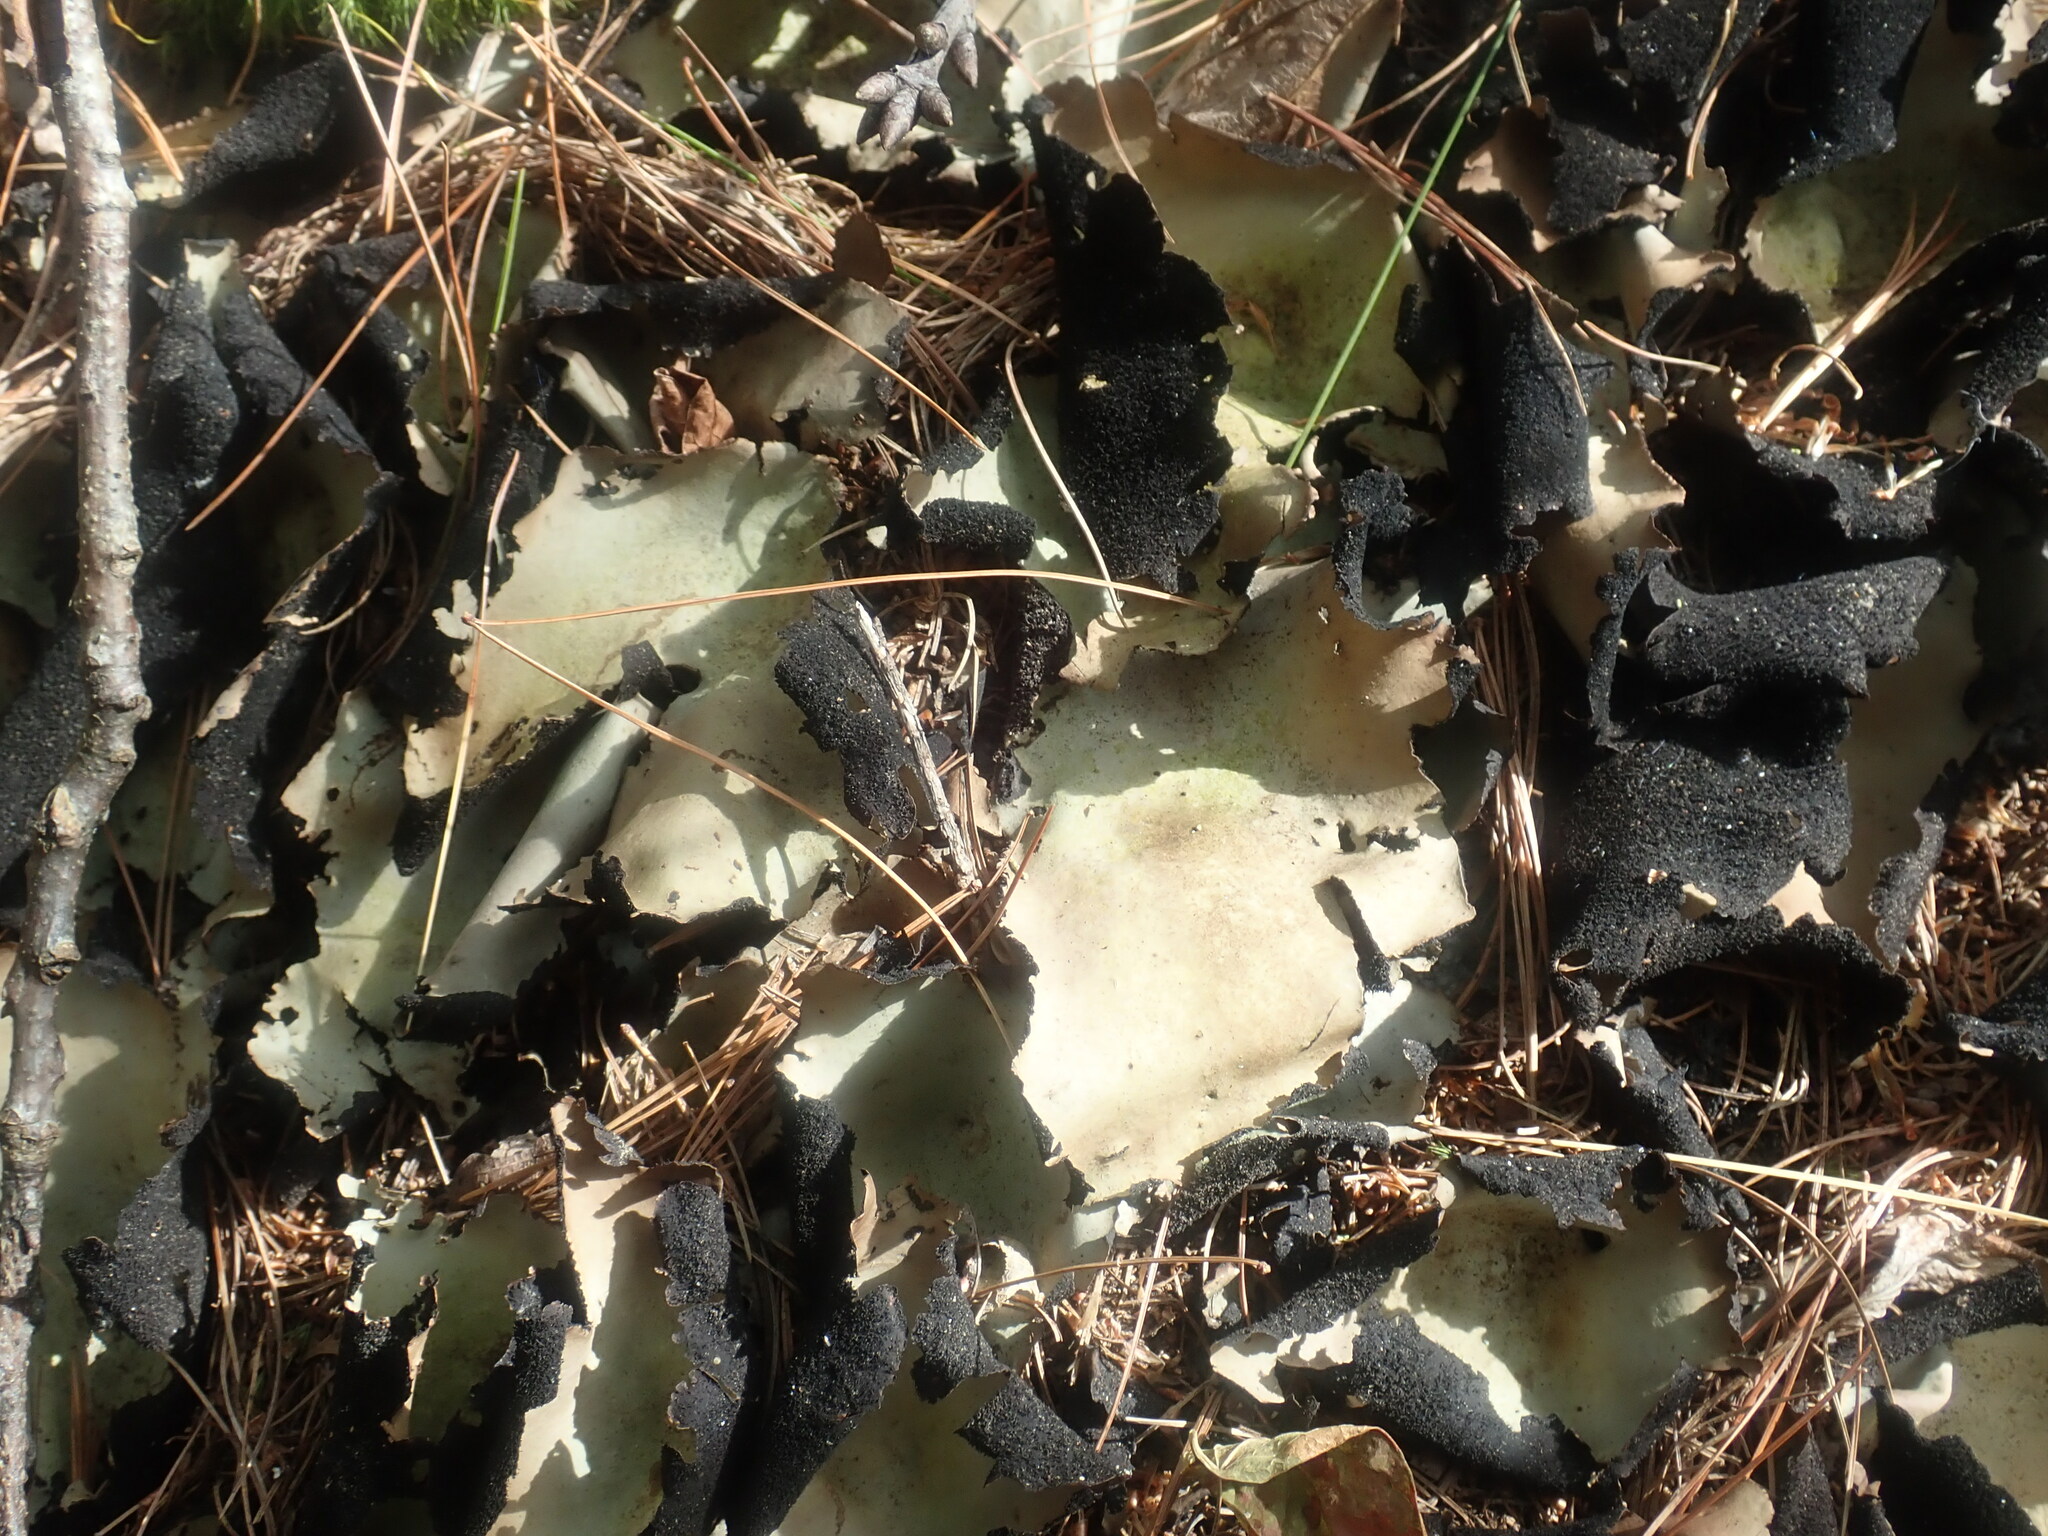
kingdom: Fungi
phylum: Ascomycota
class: Lecanoromycetes
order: Umbilicariales
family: Umbilicariaceae
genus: Umbilicaria
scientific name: Umbilicaria mammulata
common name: Smooth rock tripe
